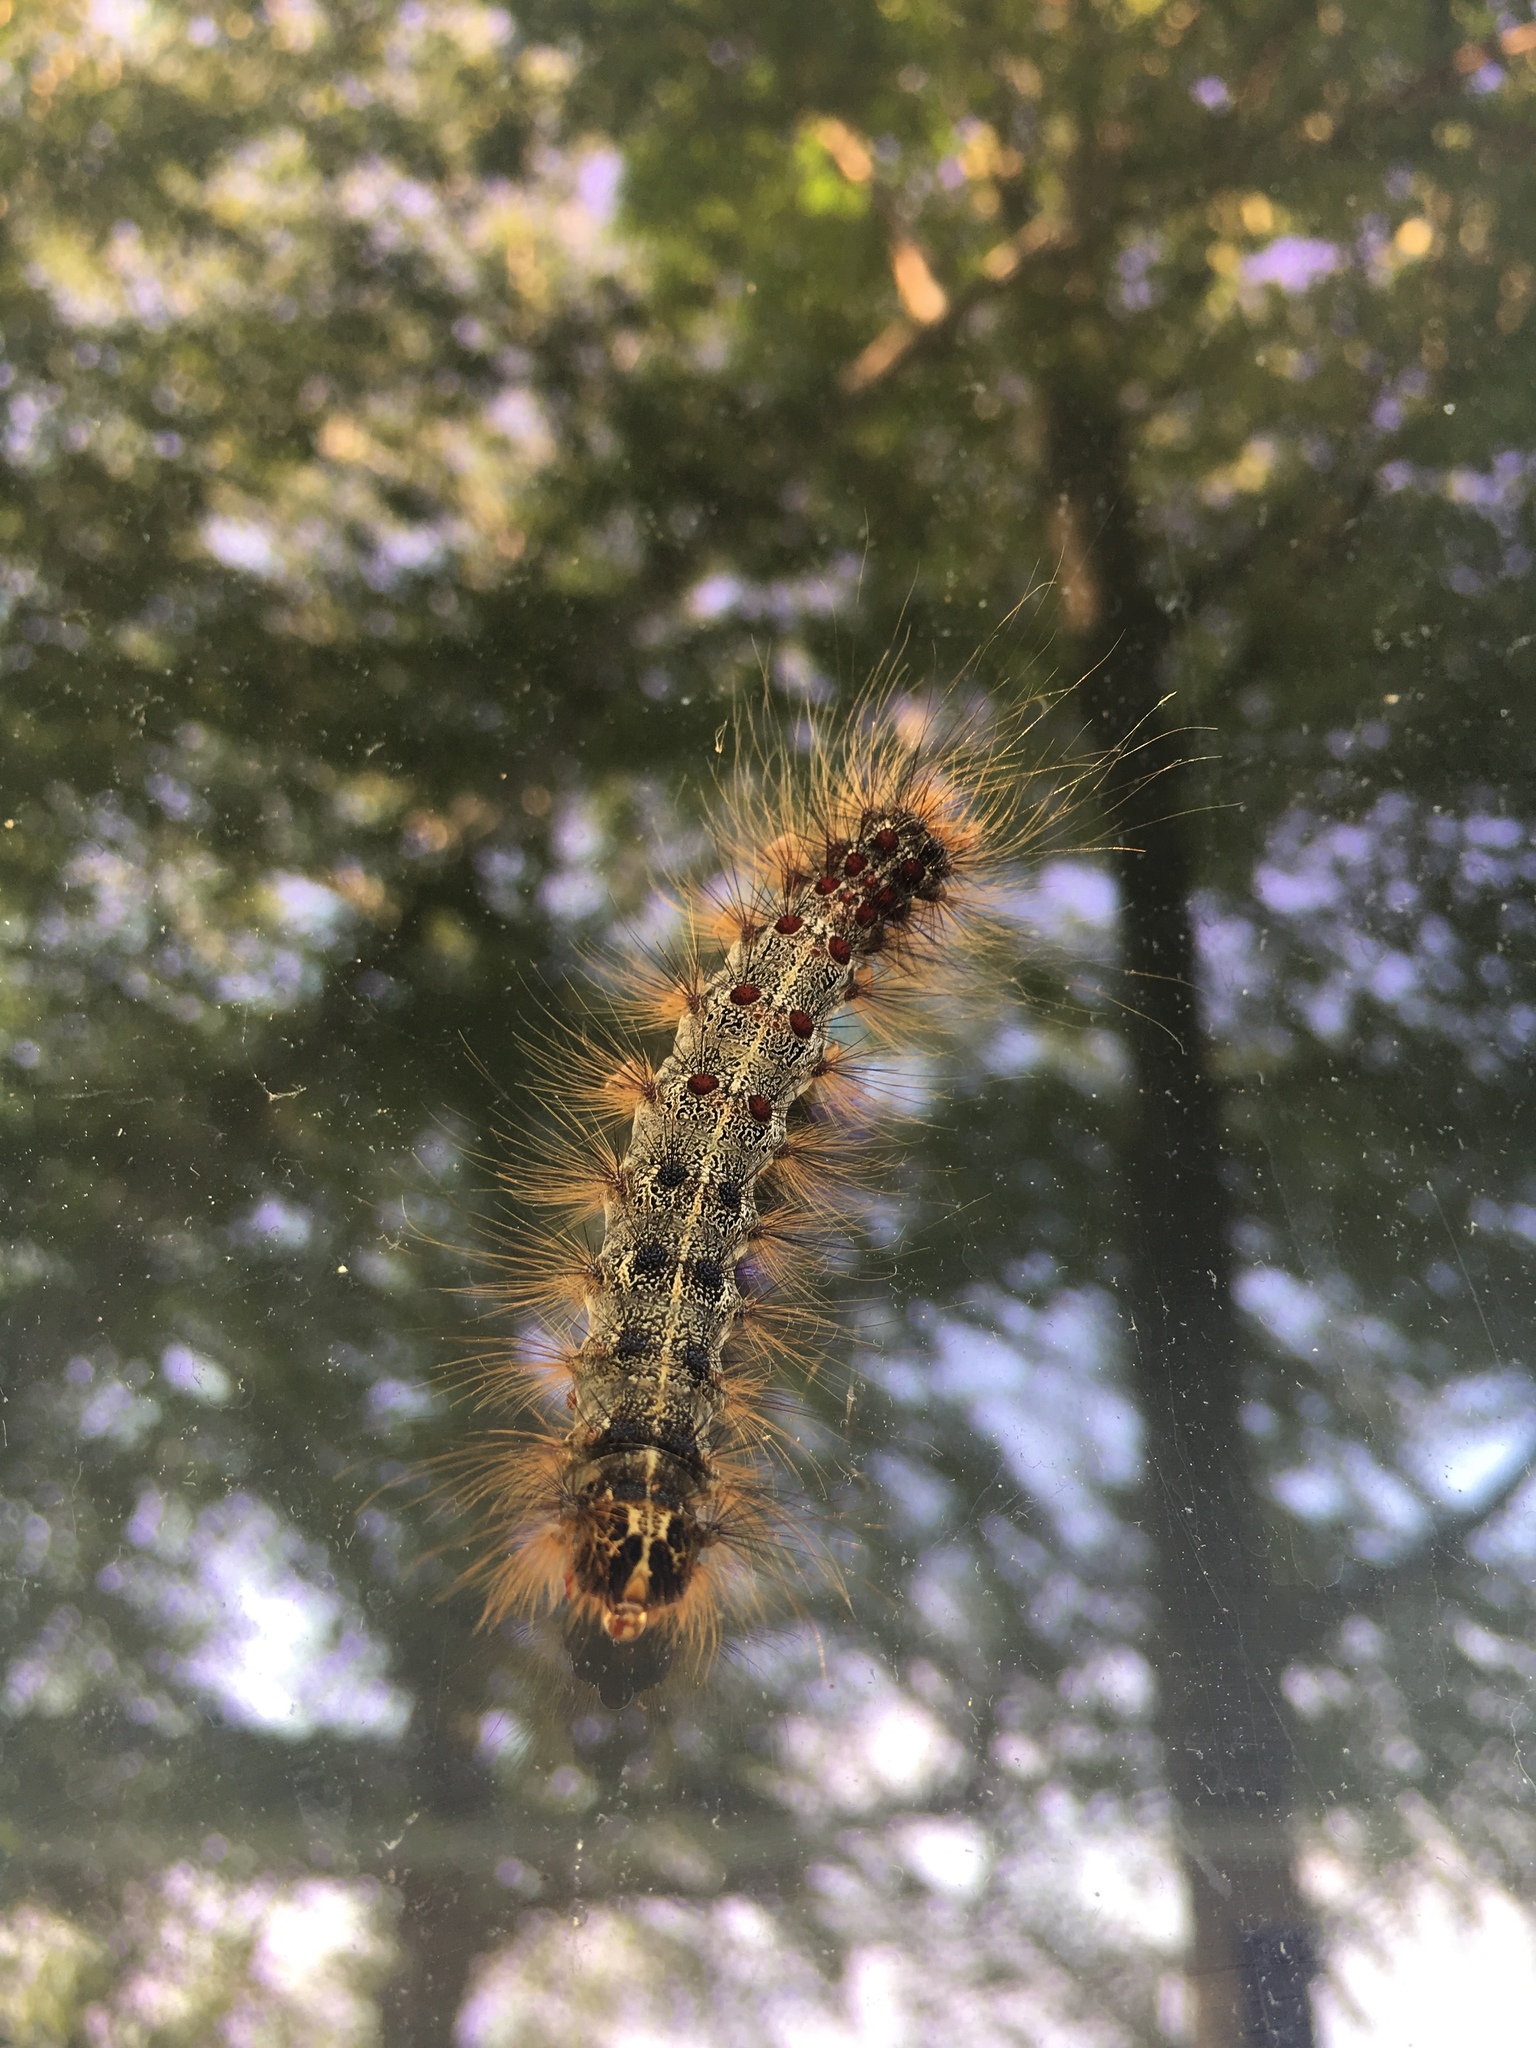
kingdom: Animalia
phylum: Arthropoda
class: Insecta
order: Lepidoptera
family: Erebidae
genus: Lymantria
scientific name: Lymantria dispar
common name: Gypsy moth
